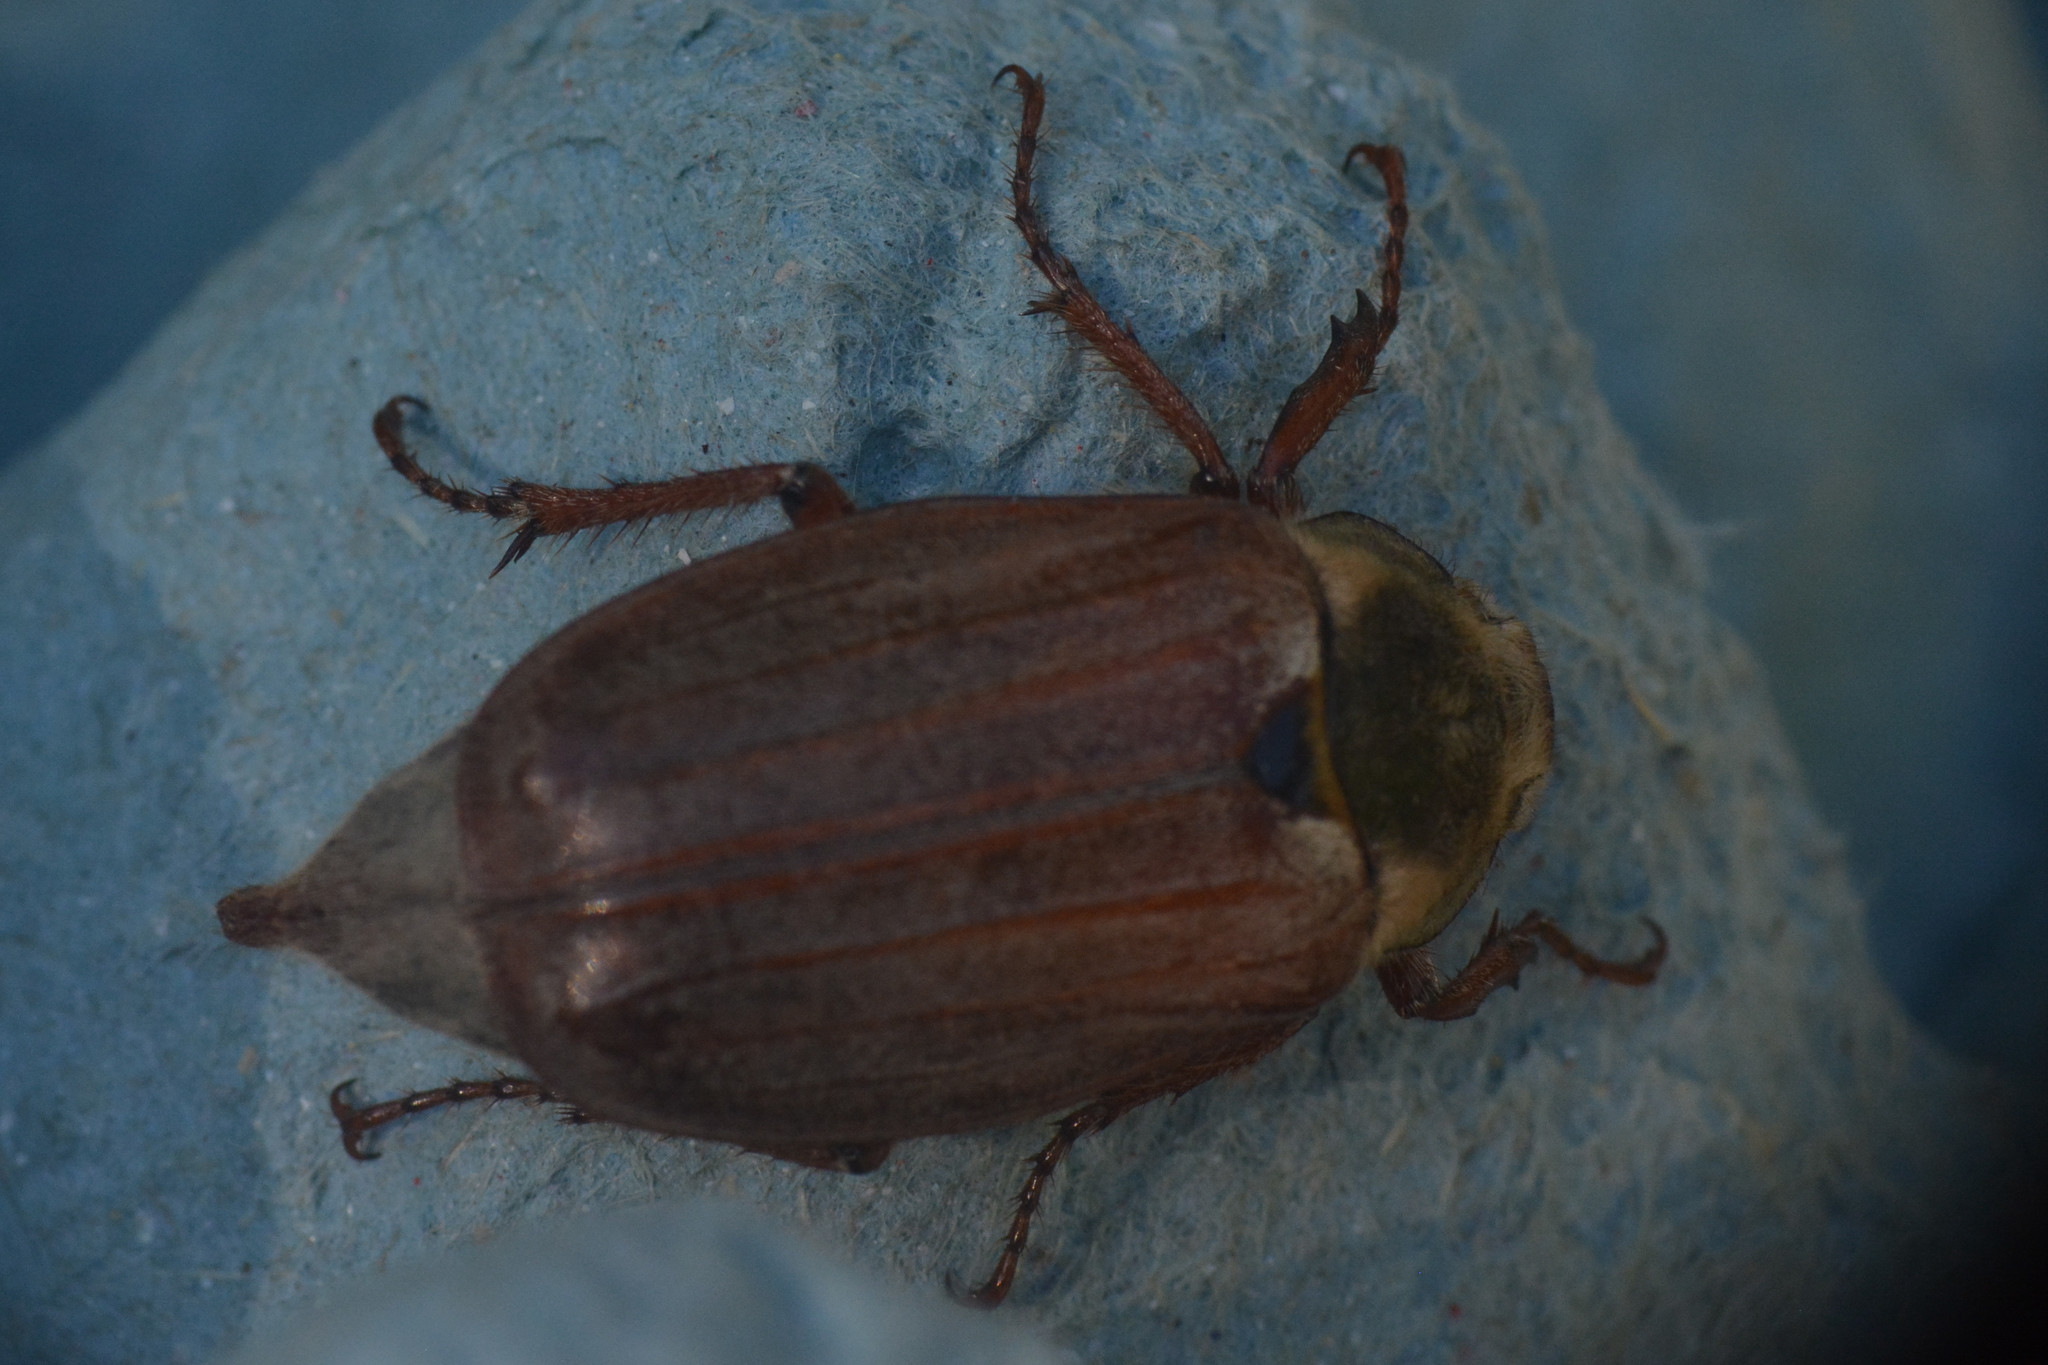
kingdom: Animalia
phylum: Arthropoda
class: Insecta
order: Coleoptera
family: Scarabaeidae
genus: Melolontha
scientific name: Melolontha melolontha
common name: Cockchafer maybeetle
